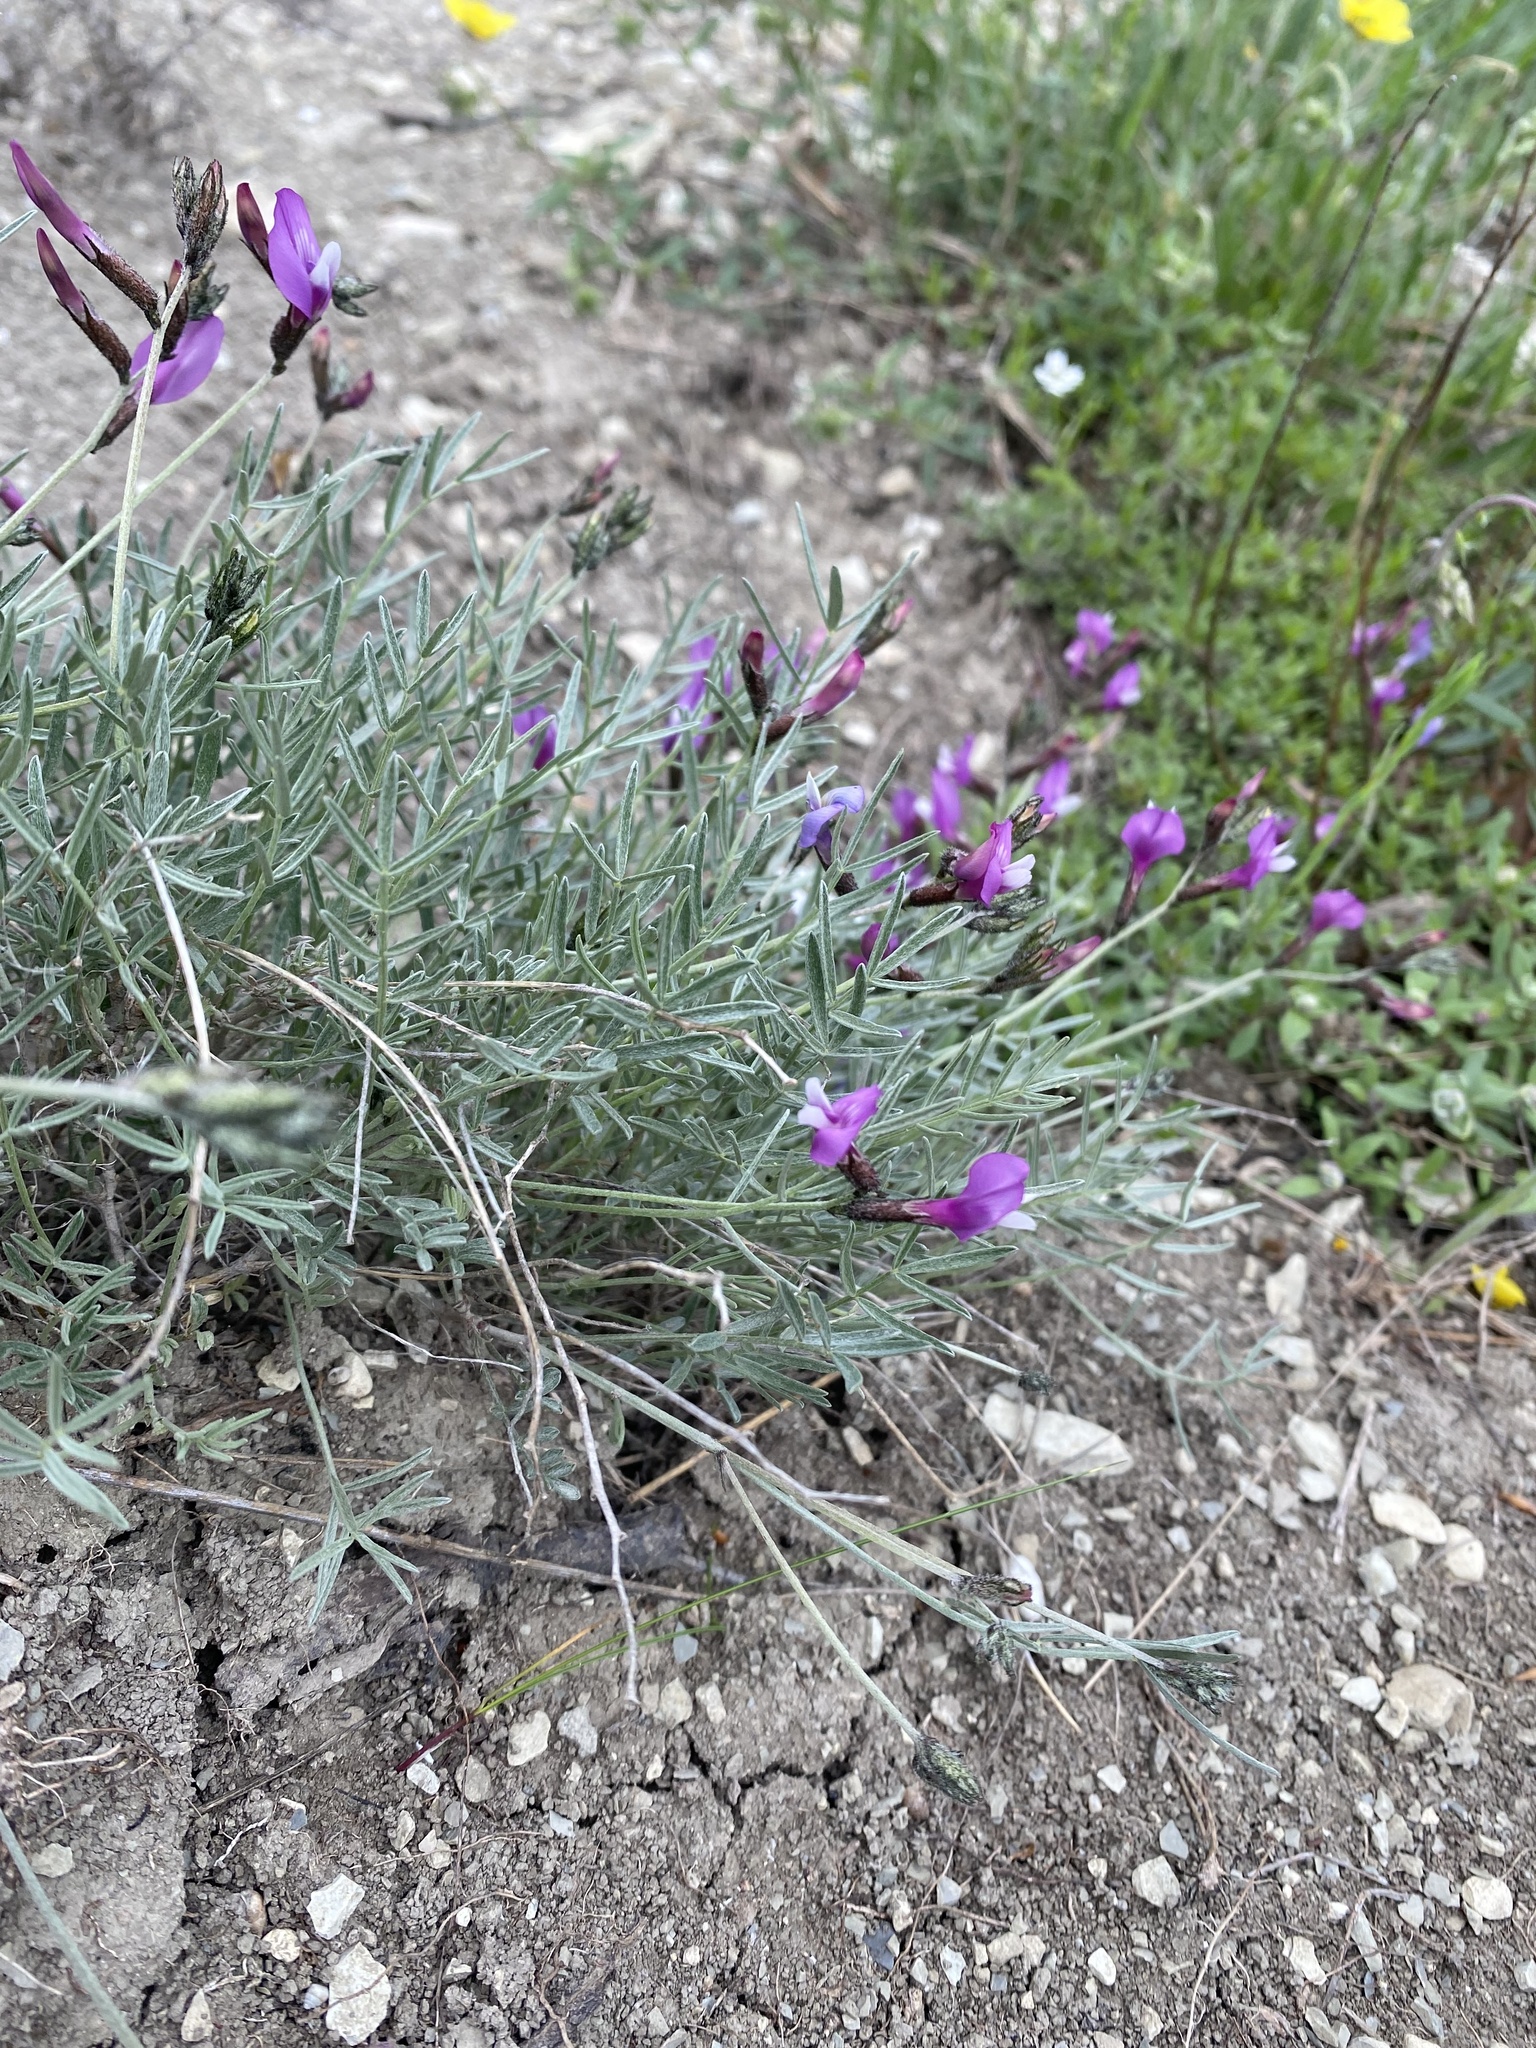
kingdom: Plantae
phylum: Tracheophyta
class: Magnoliopsida
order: Fabales
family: Fabaceae
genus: Astragalus
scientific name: Astragalus subuliformis
